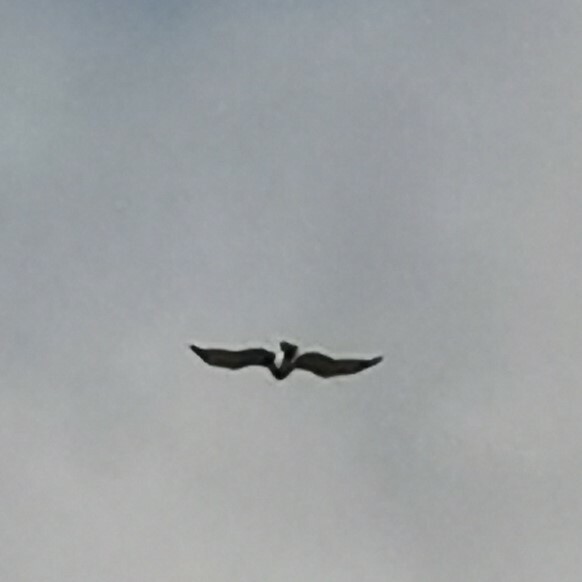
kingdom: Animalia
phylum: Chordata
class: Aves
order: Accipitriformes
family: Accipitridae
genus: Circaetus
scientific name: Circaetus gallicus
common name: Short-toed snake eagle
